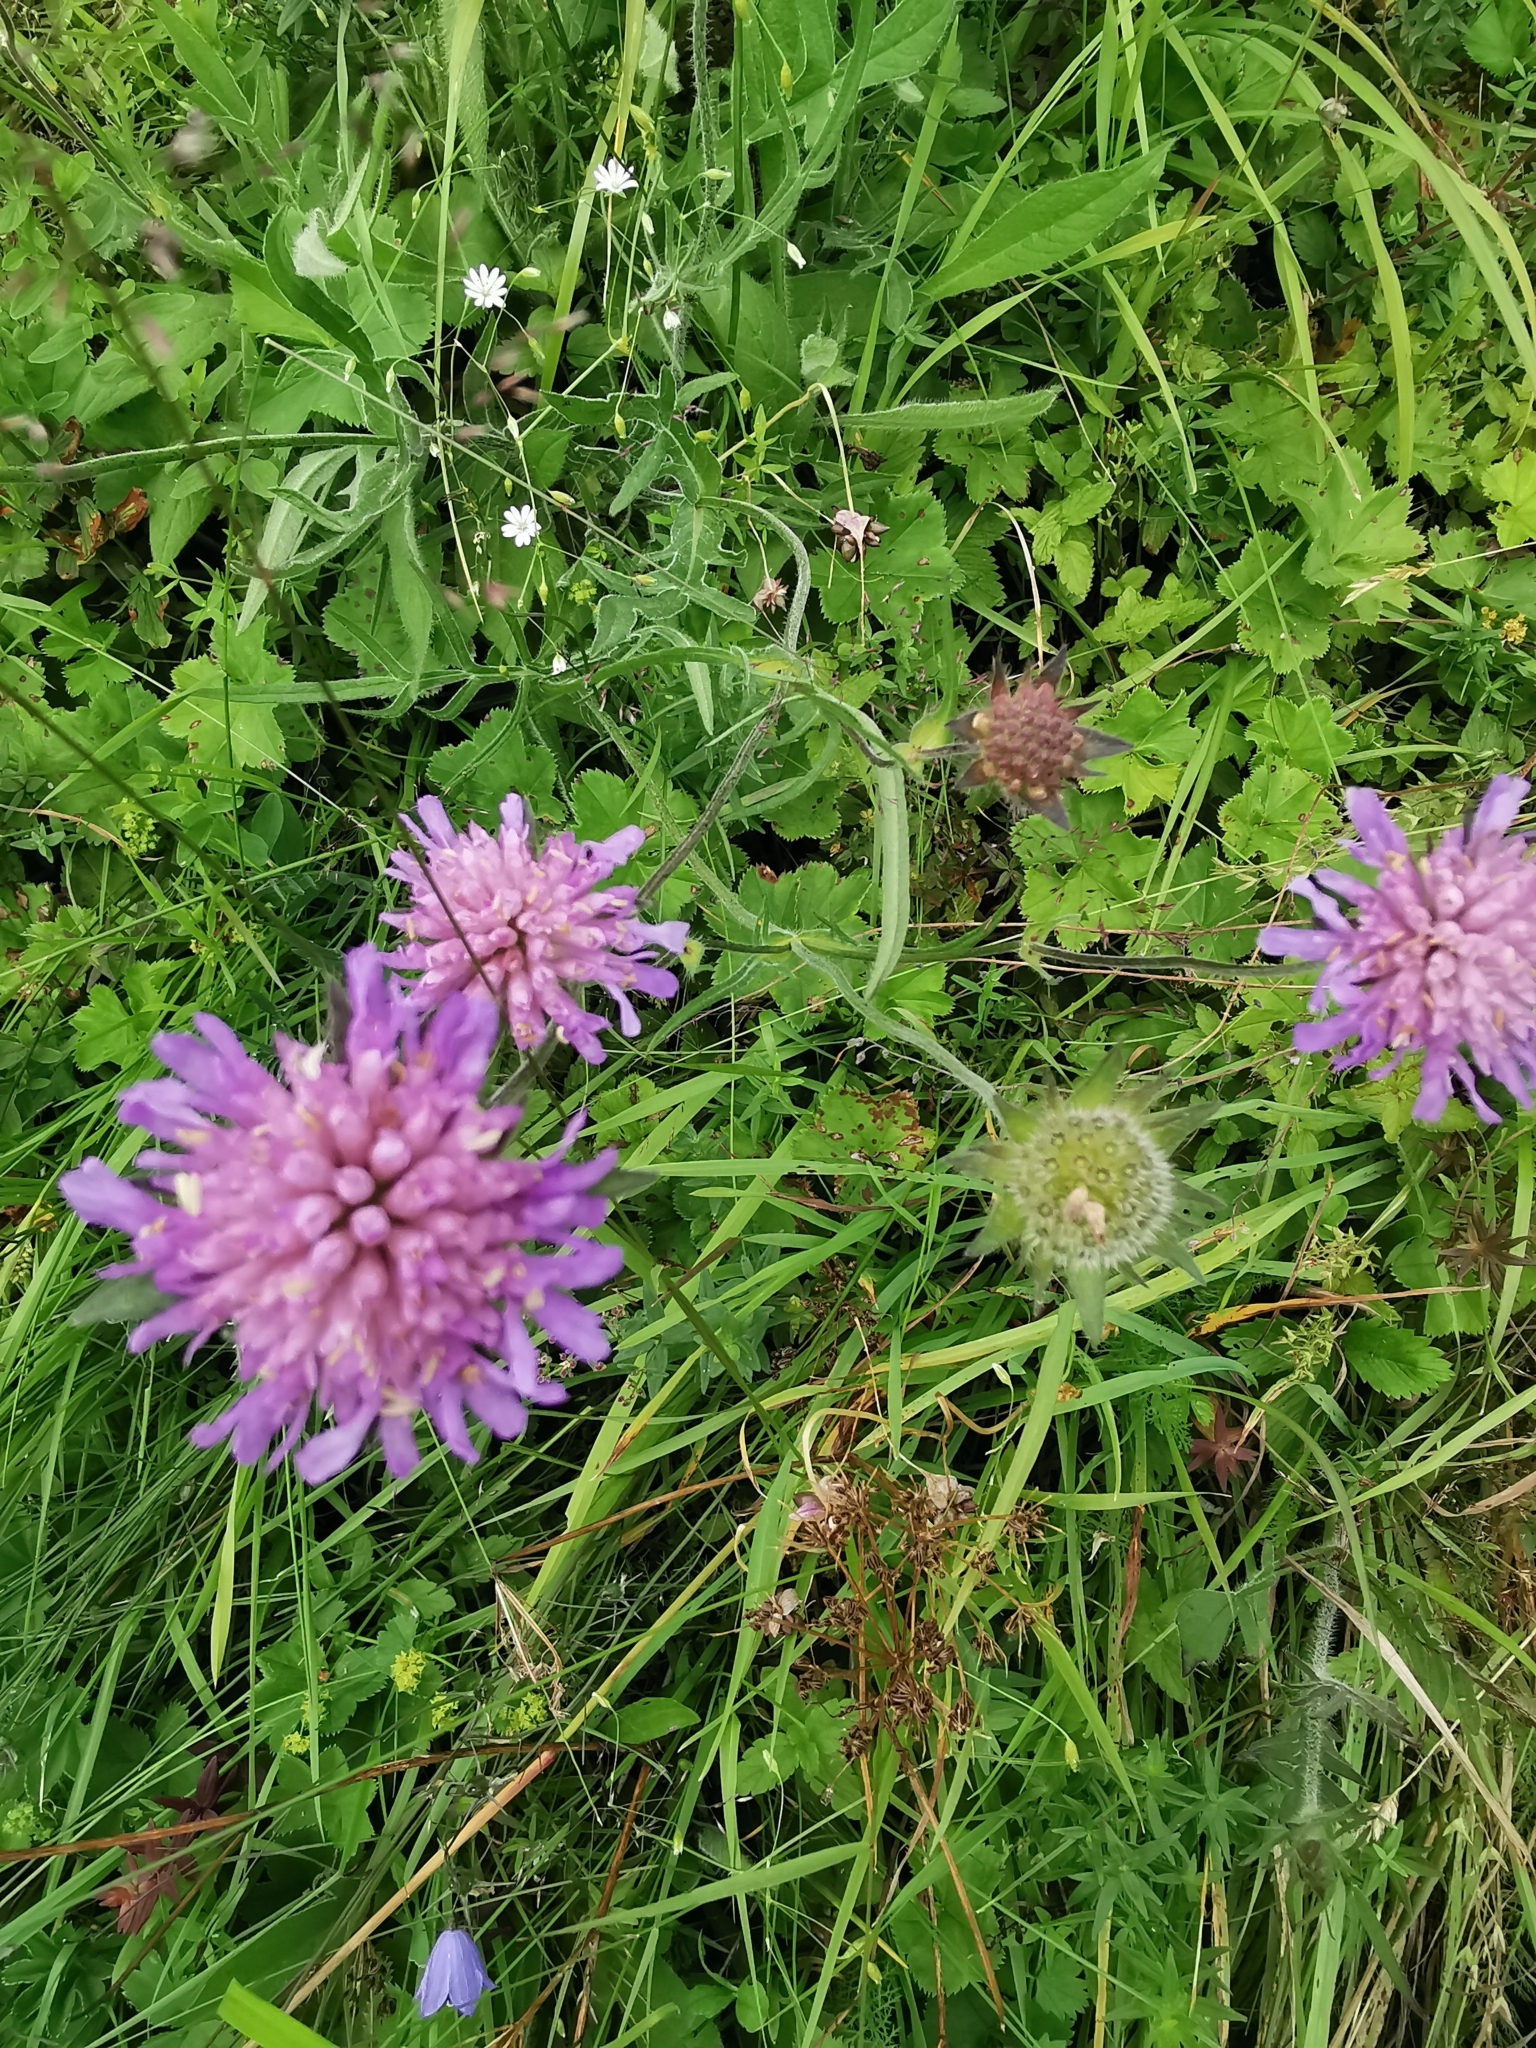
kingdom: Plantae
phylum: Tracheophyta
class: Magnoliopsida
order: Dipsacales
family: Caprifoliaceae
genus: Knautia
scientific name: Knautia arvensis
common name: Field scabiosa
